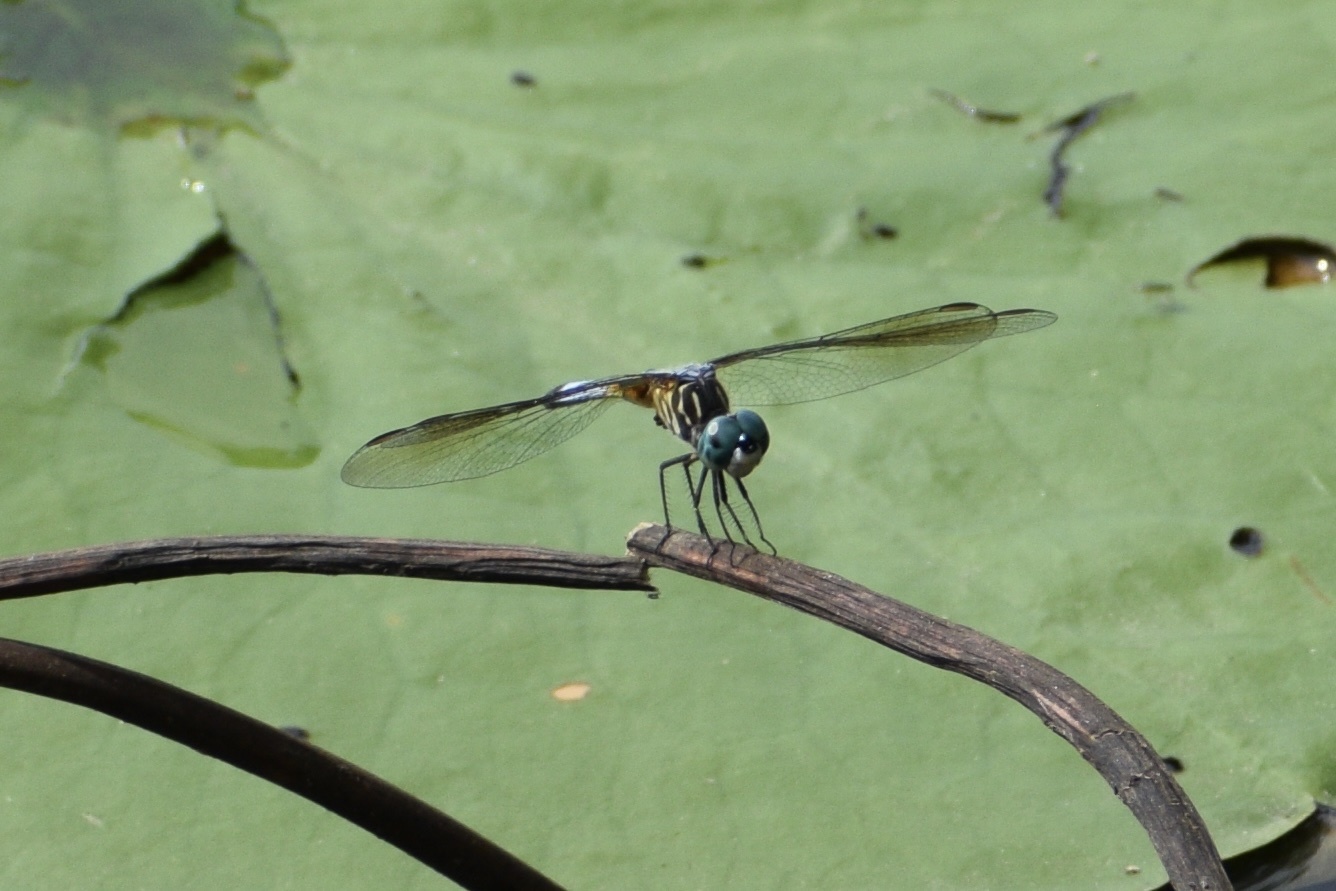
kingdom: Animalia
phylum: Arthropoda
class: Insecta
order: Odonata
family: Libellulidae
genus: Pachydiplax
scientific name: Pachydiplax longipennis
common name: Blue dasher
